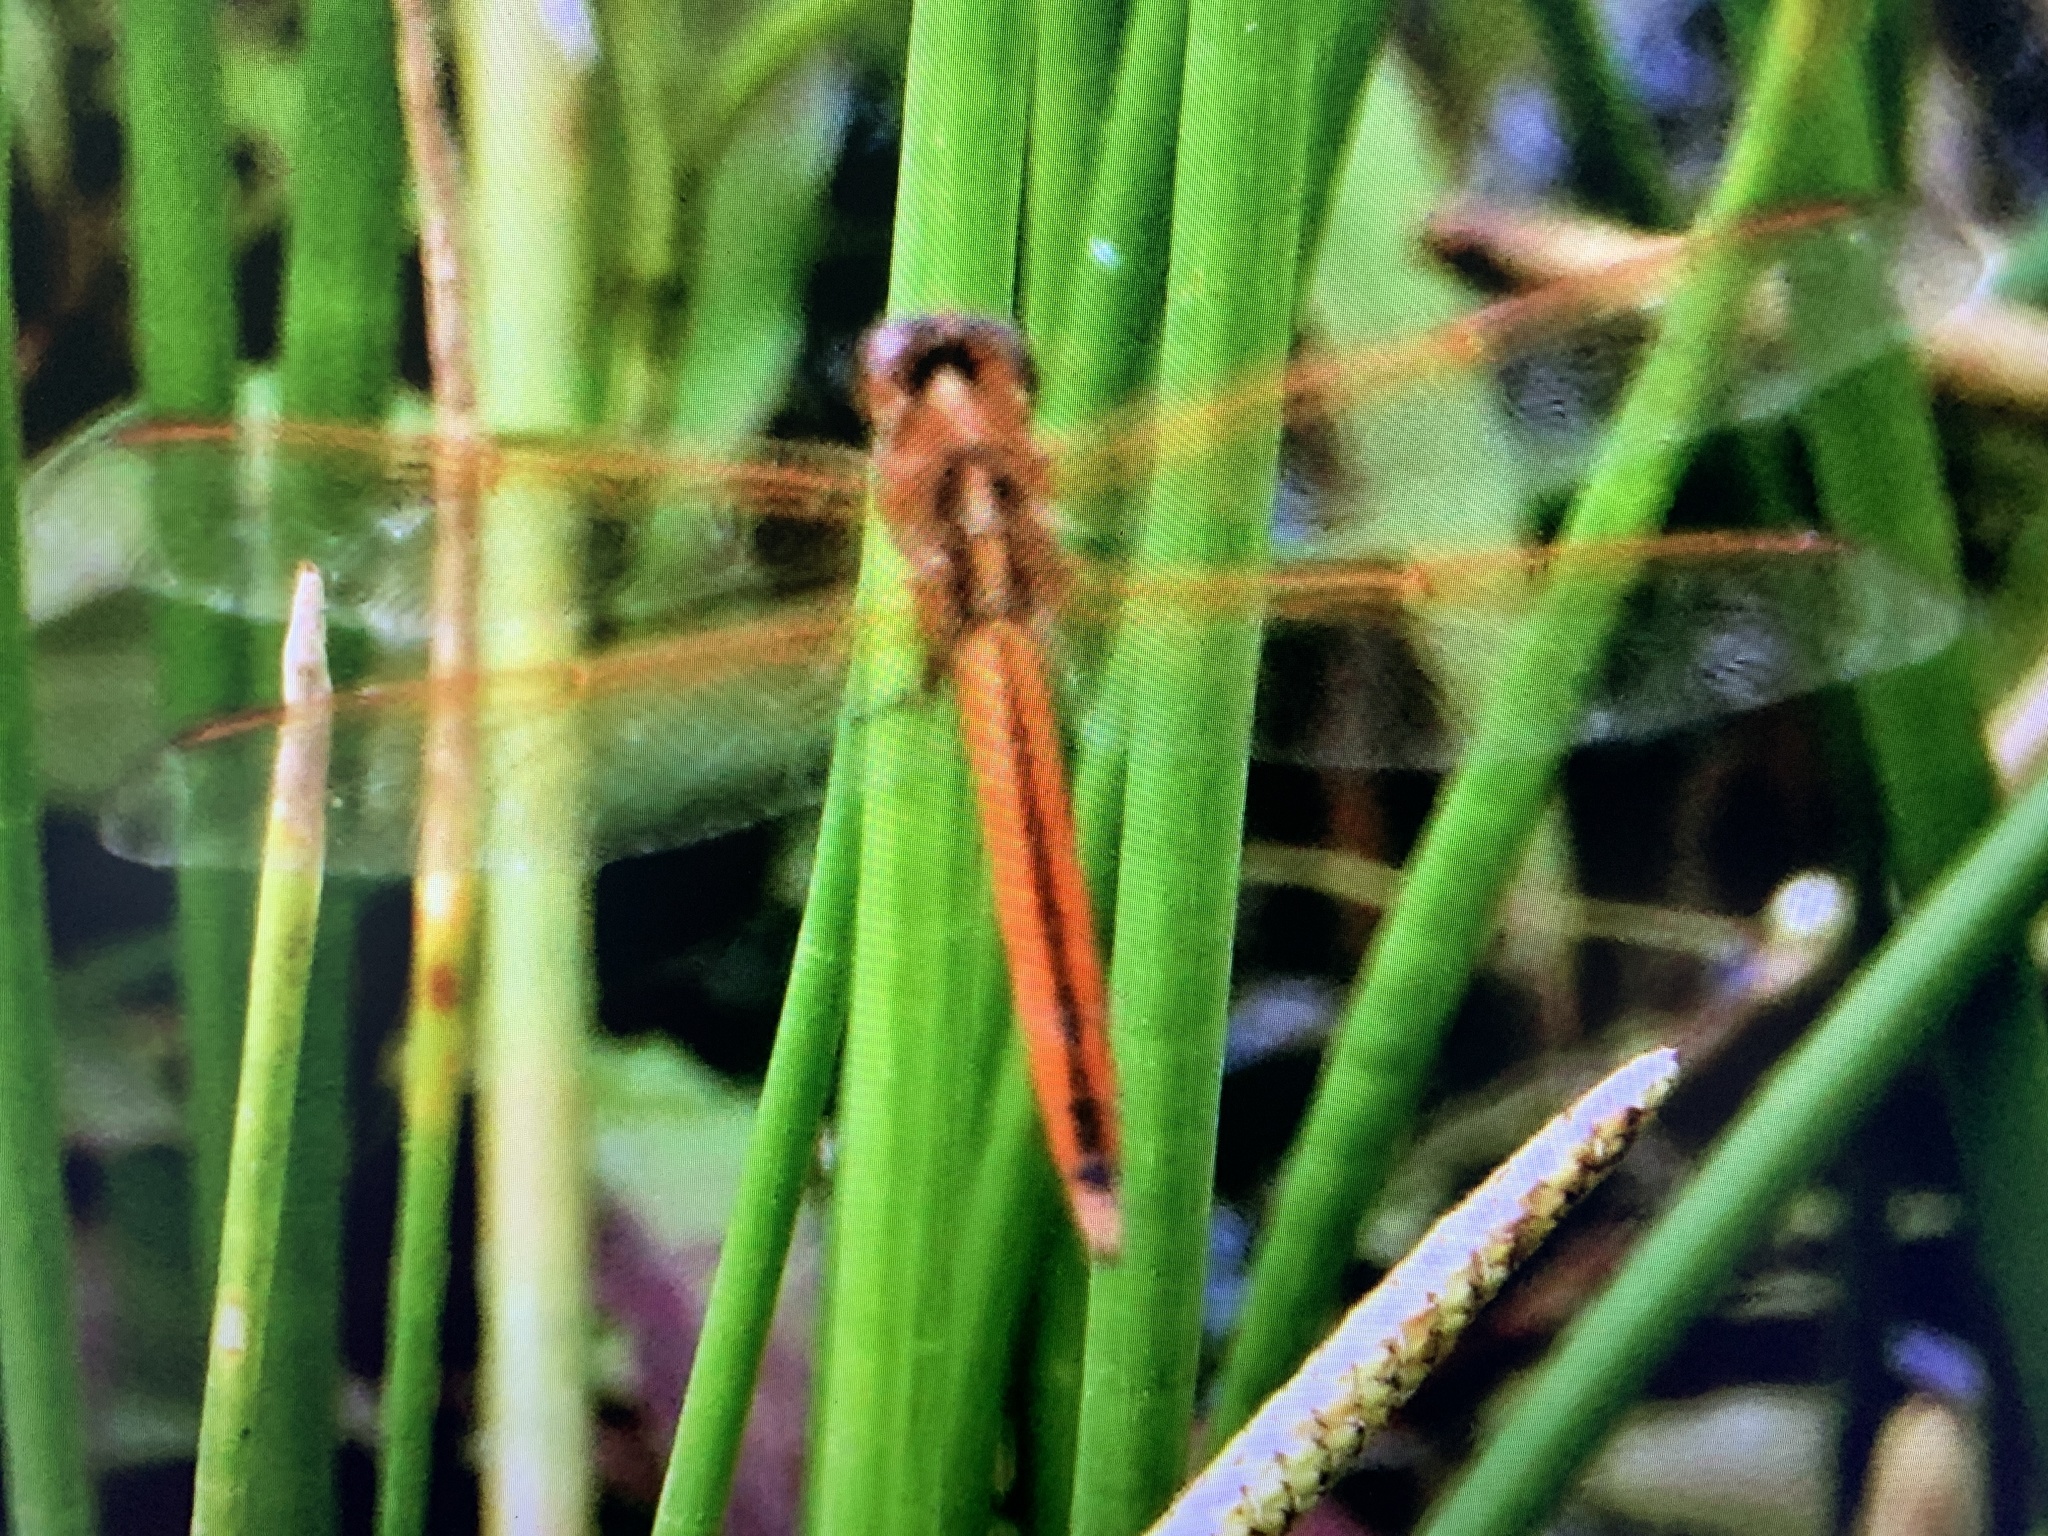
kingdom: Animalia
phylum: Arthropoda
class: Insecta
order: Odonata
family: Libellulidae
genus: Libellula
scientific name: Libellula needhami
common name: Needham's skimmer
